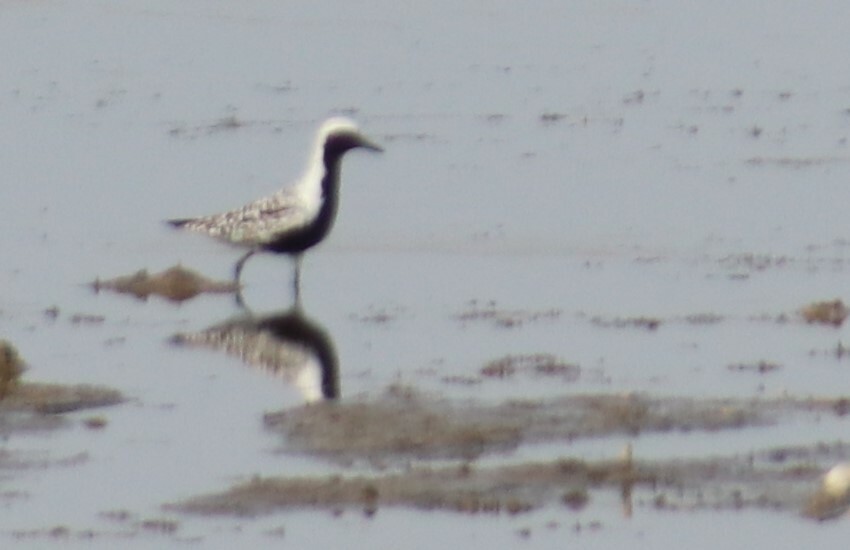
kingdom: Animalia
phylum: Chordata
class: Aves
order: Charadriiformes
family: Charadriidae
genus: Pluvialis
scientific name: Pluvialis squatarola
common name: Grey plover
